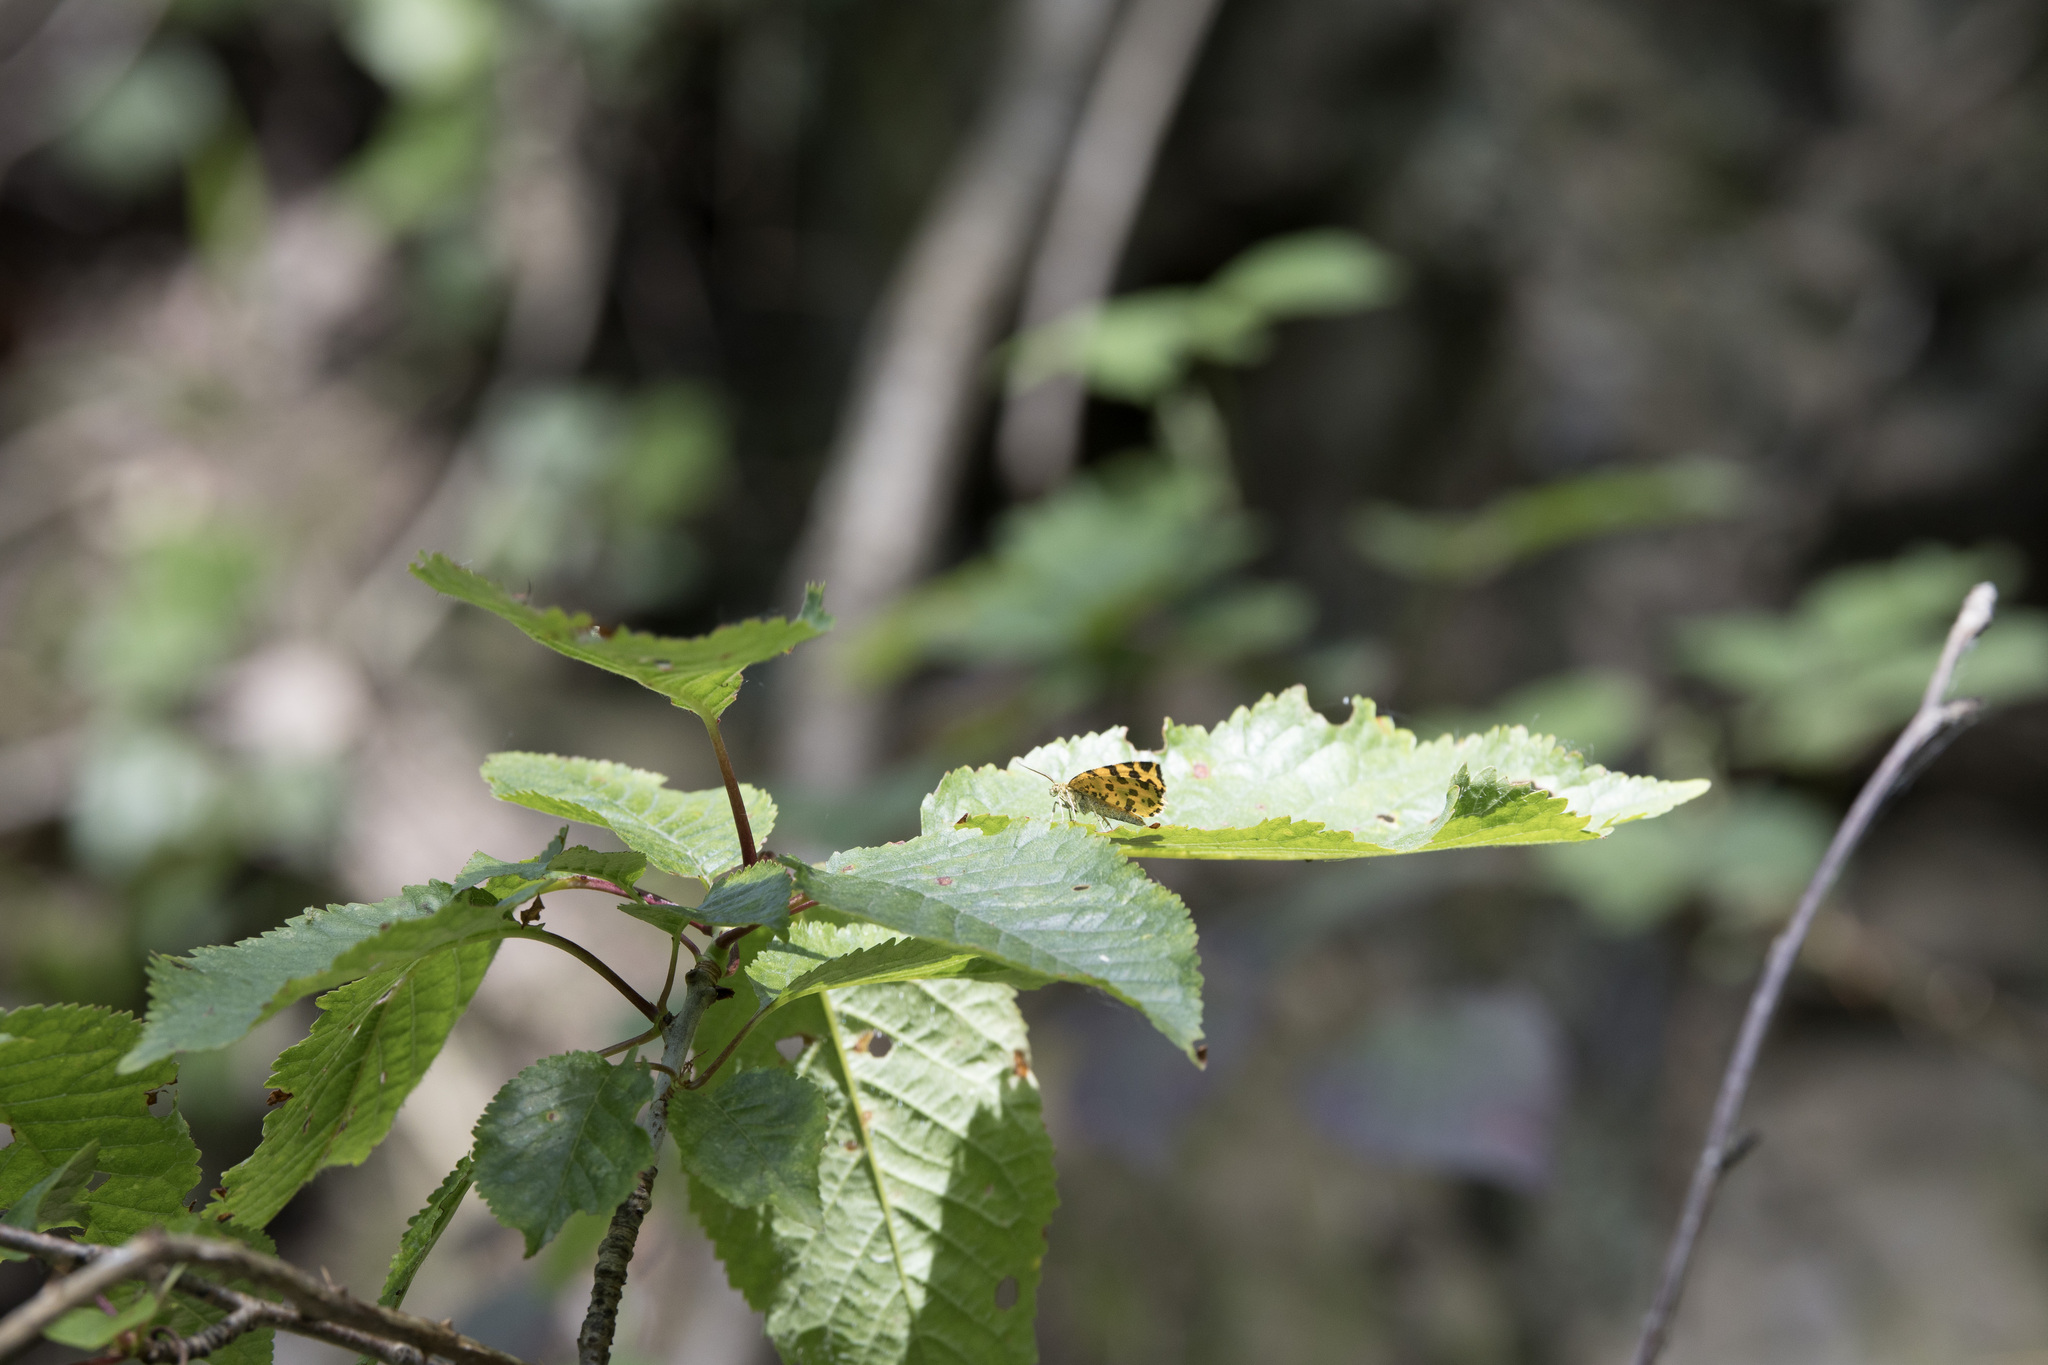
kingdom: Animalia
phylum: Arthropoda
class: Insecta
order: Lepidoptera
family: Geometridae
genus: Pseudopanthera
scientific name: Pseudopanthera macularia
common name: Speckled yellow
